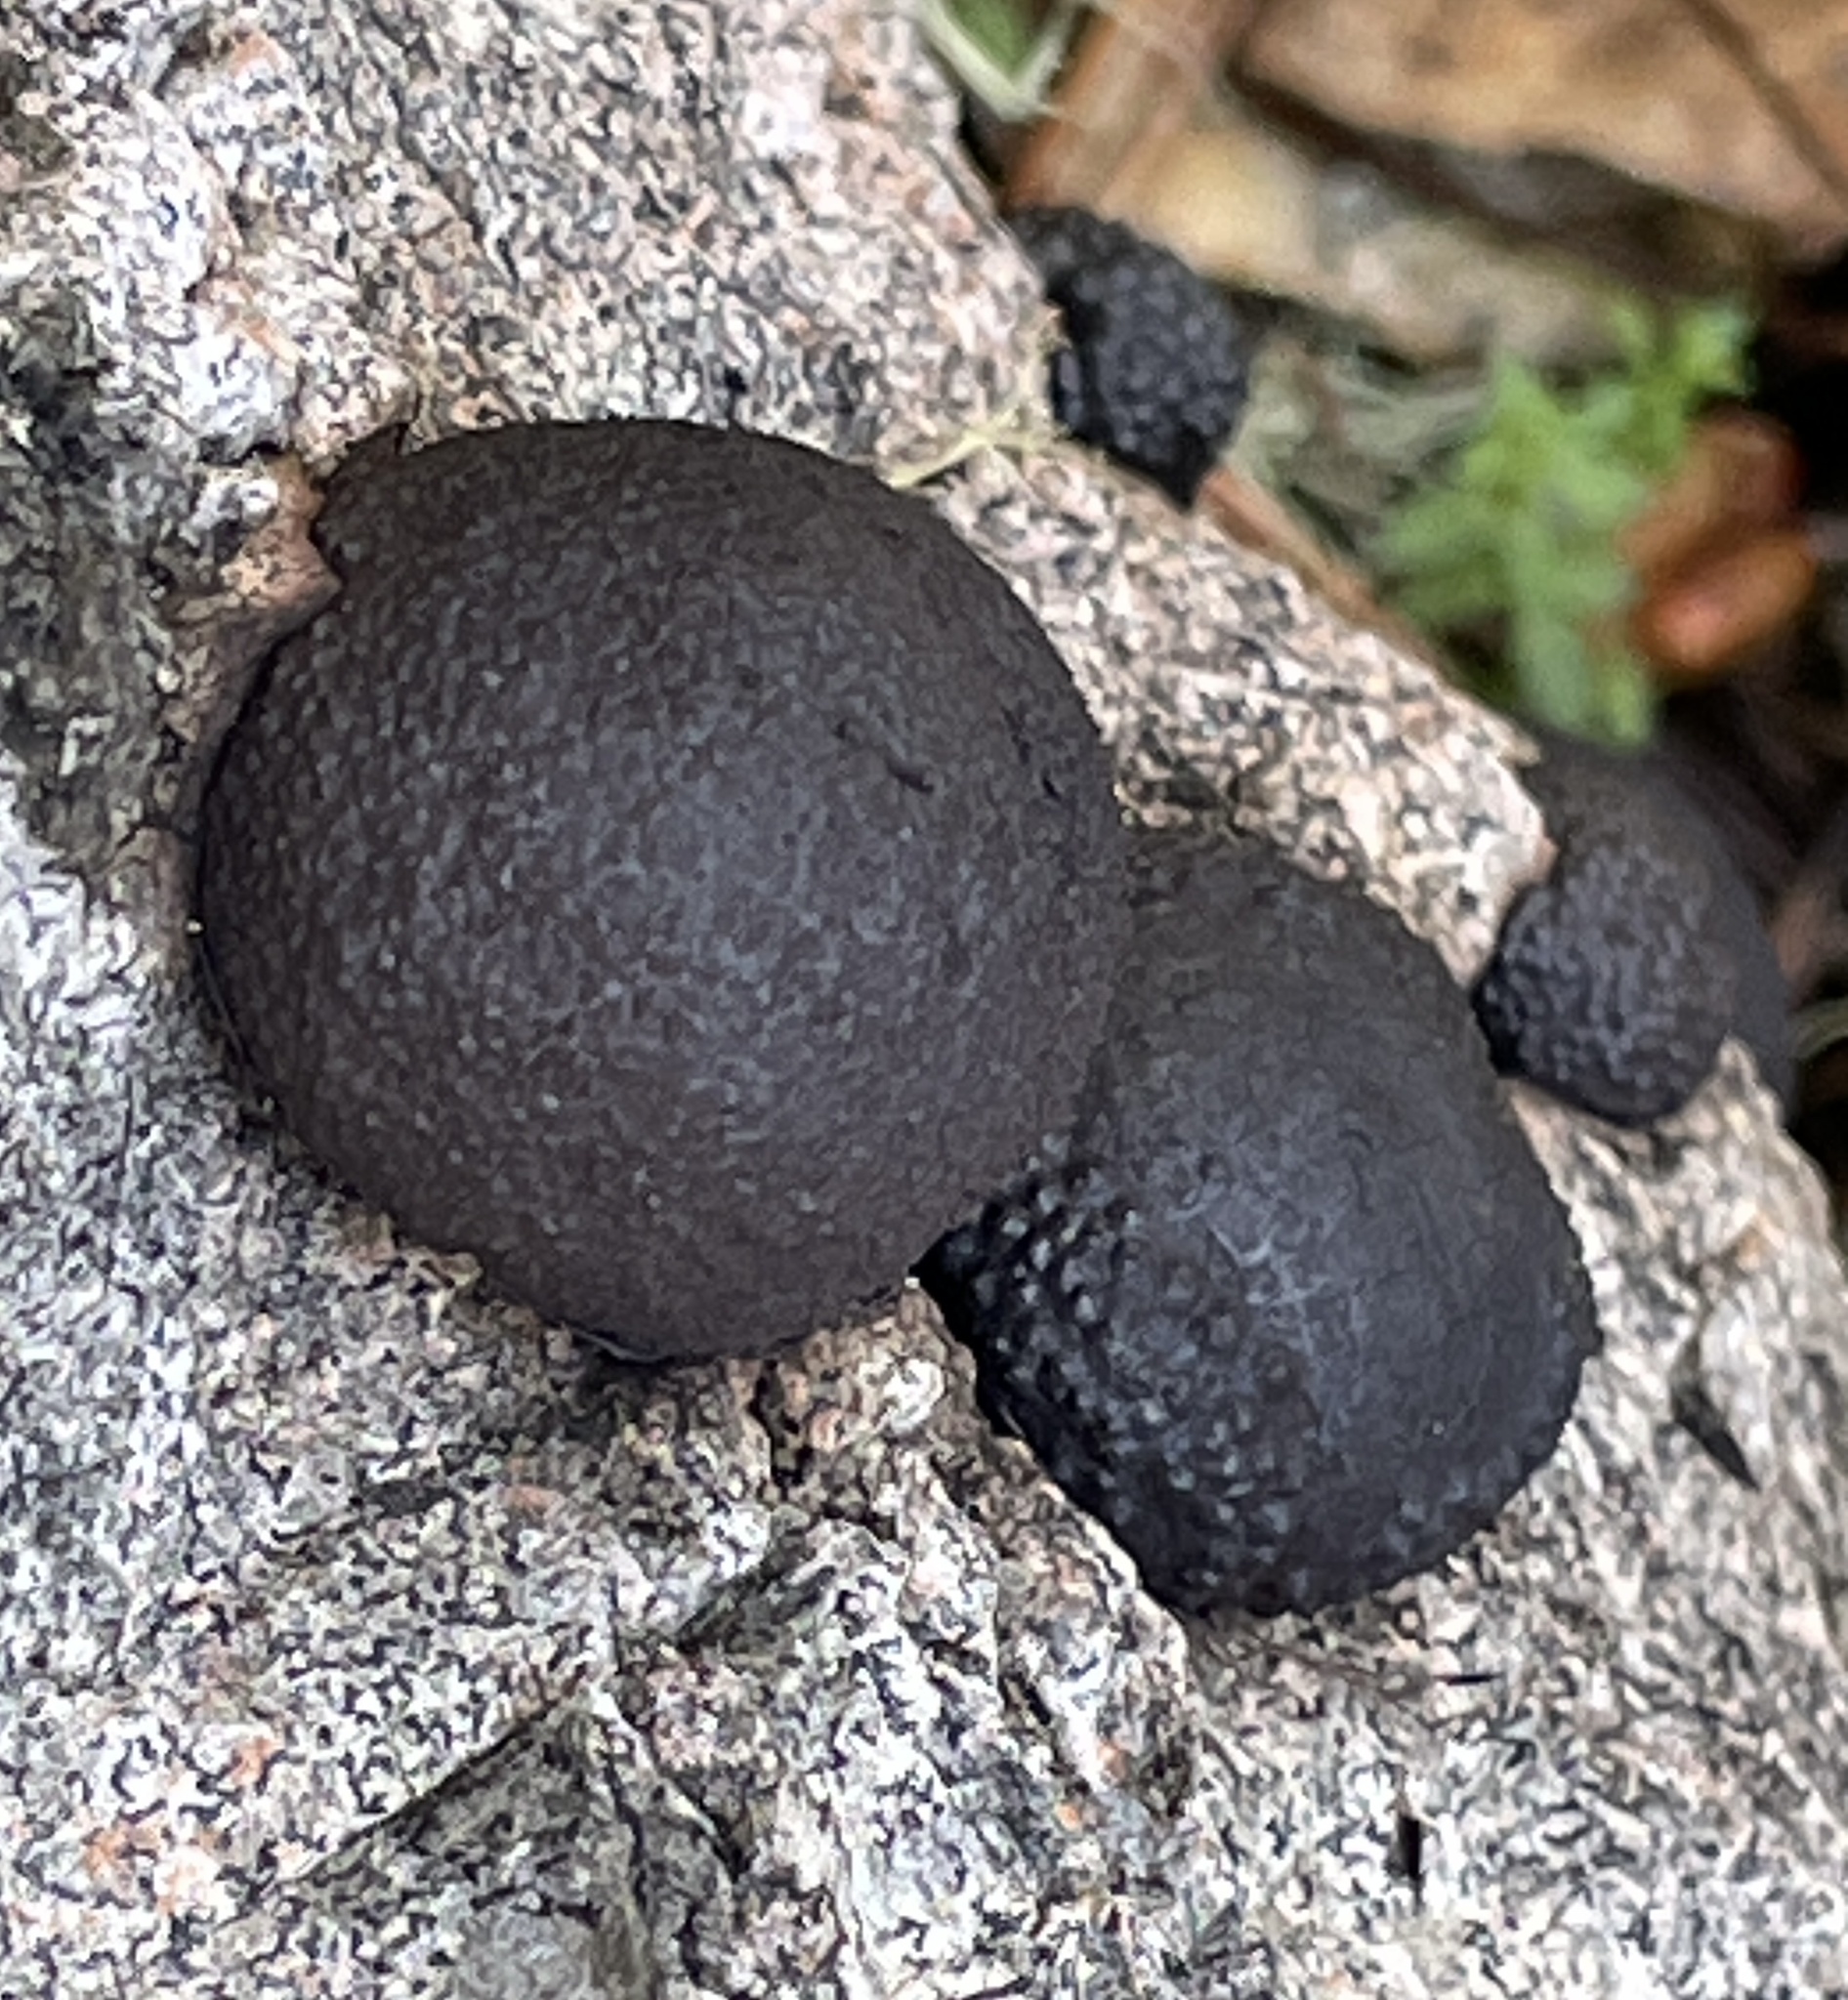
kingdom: Fungi
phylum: Ascomycota
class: Sordariomycetes
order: Xylariales
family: Hypoxylaceae
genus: Annulohypoxylon
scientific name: Annulohypoxylon thouarsianum
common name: Cramp balls
